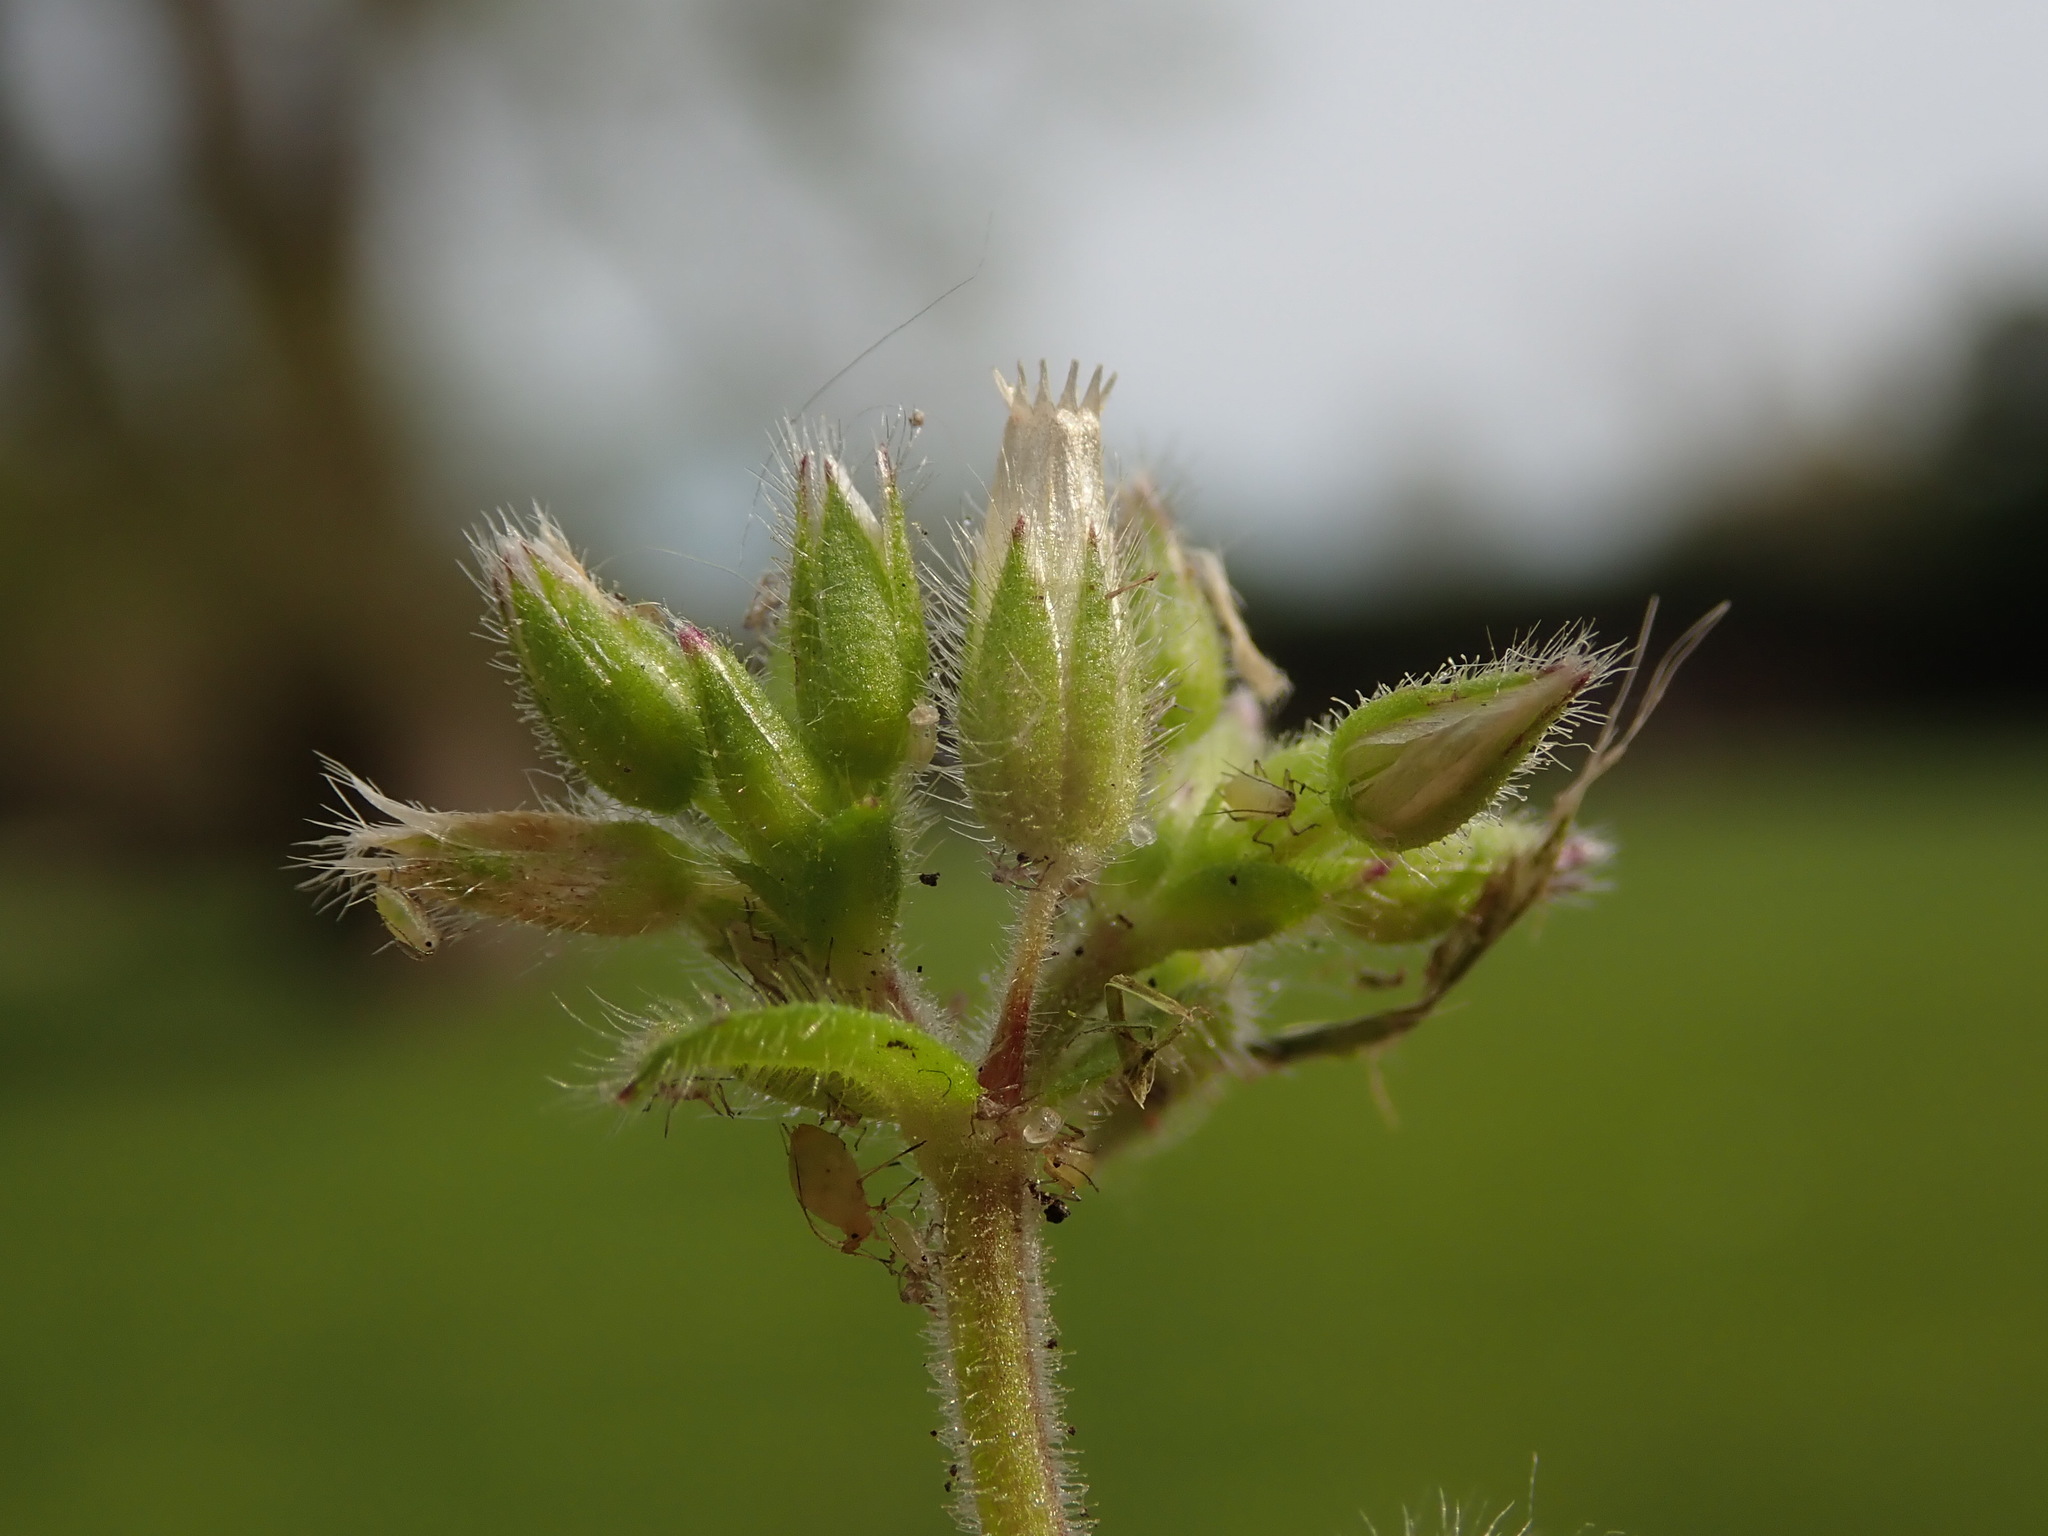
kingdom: Plantae
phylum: Tracheophyta
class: Magnoliopsida
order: Caryophyllales
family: Caryophyllaceae
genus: Cerastium
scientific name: Cerastium glomeratum
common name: Sticky chickweed
